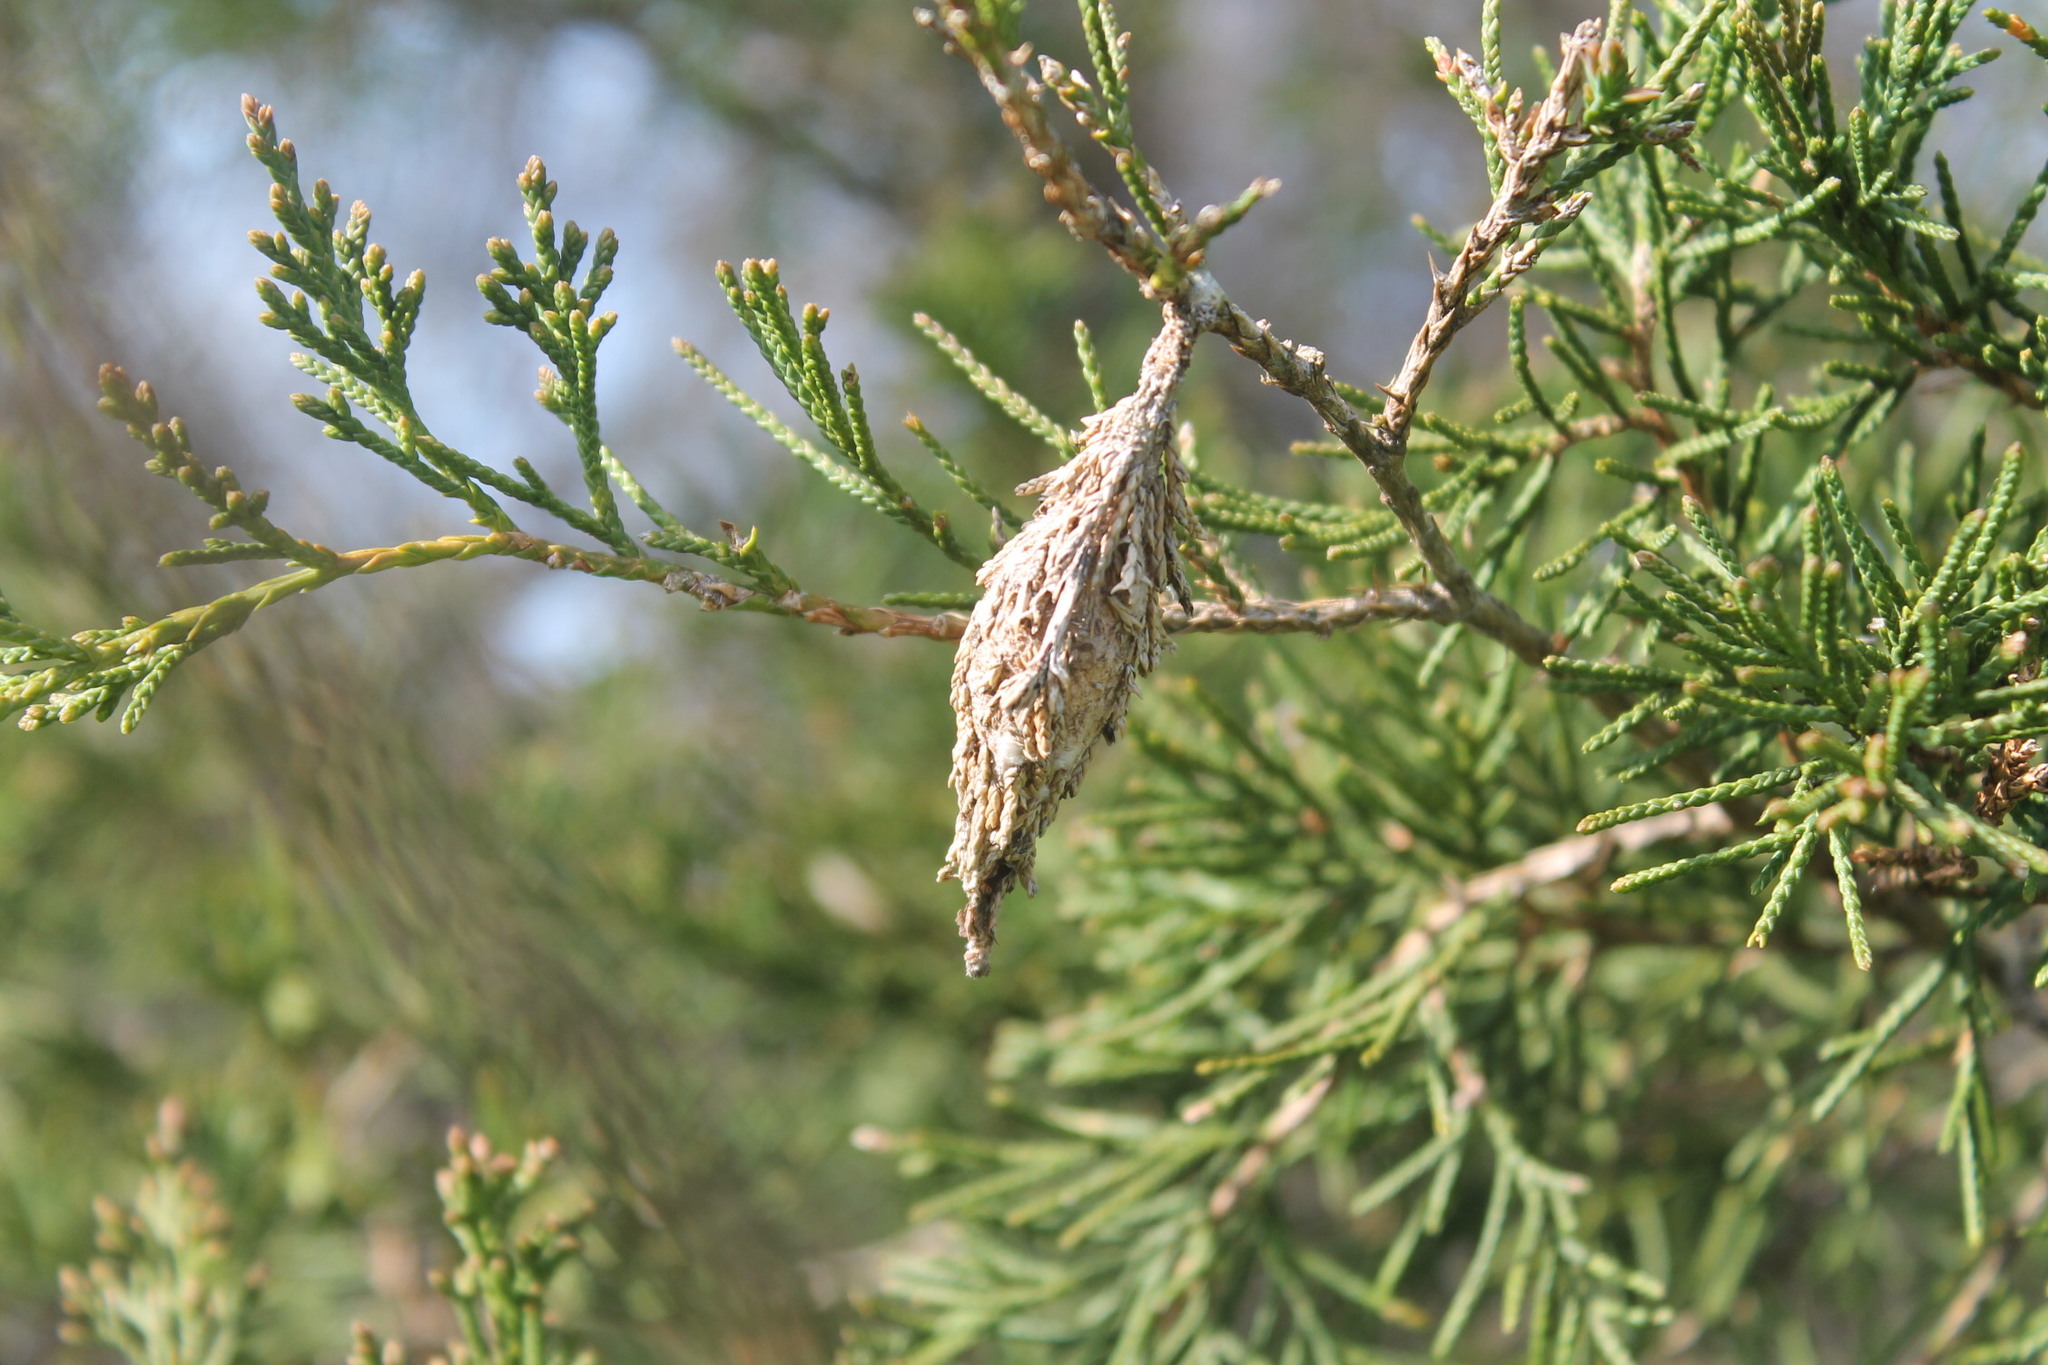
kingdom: Animalia
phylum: Arthropoda
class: Insecta
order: Lepidoptera
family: Psychidae
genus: Thyridopteryx
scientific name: Thyridopteryx ephemeraeformis
